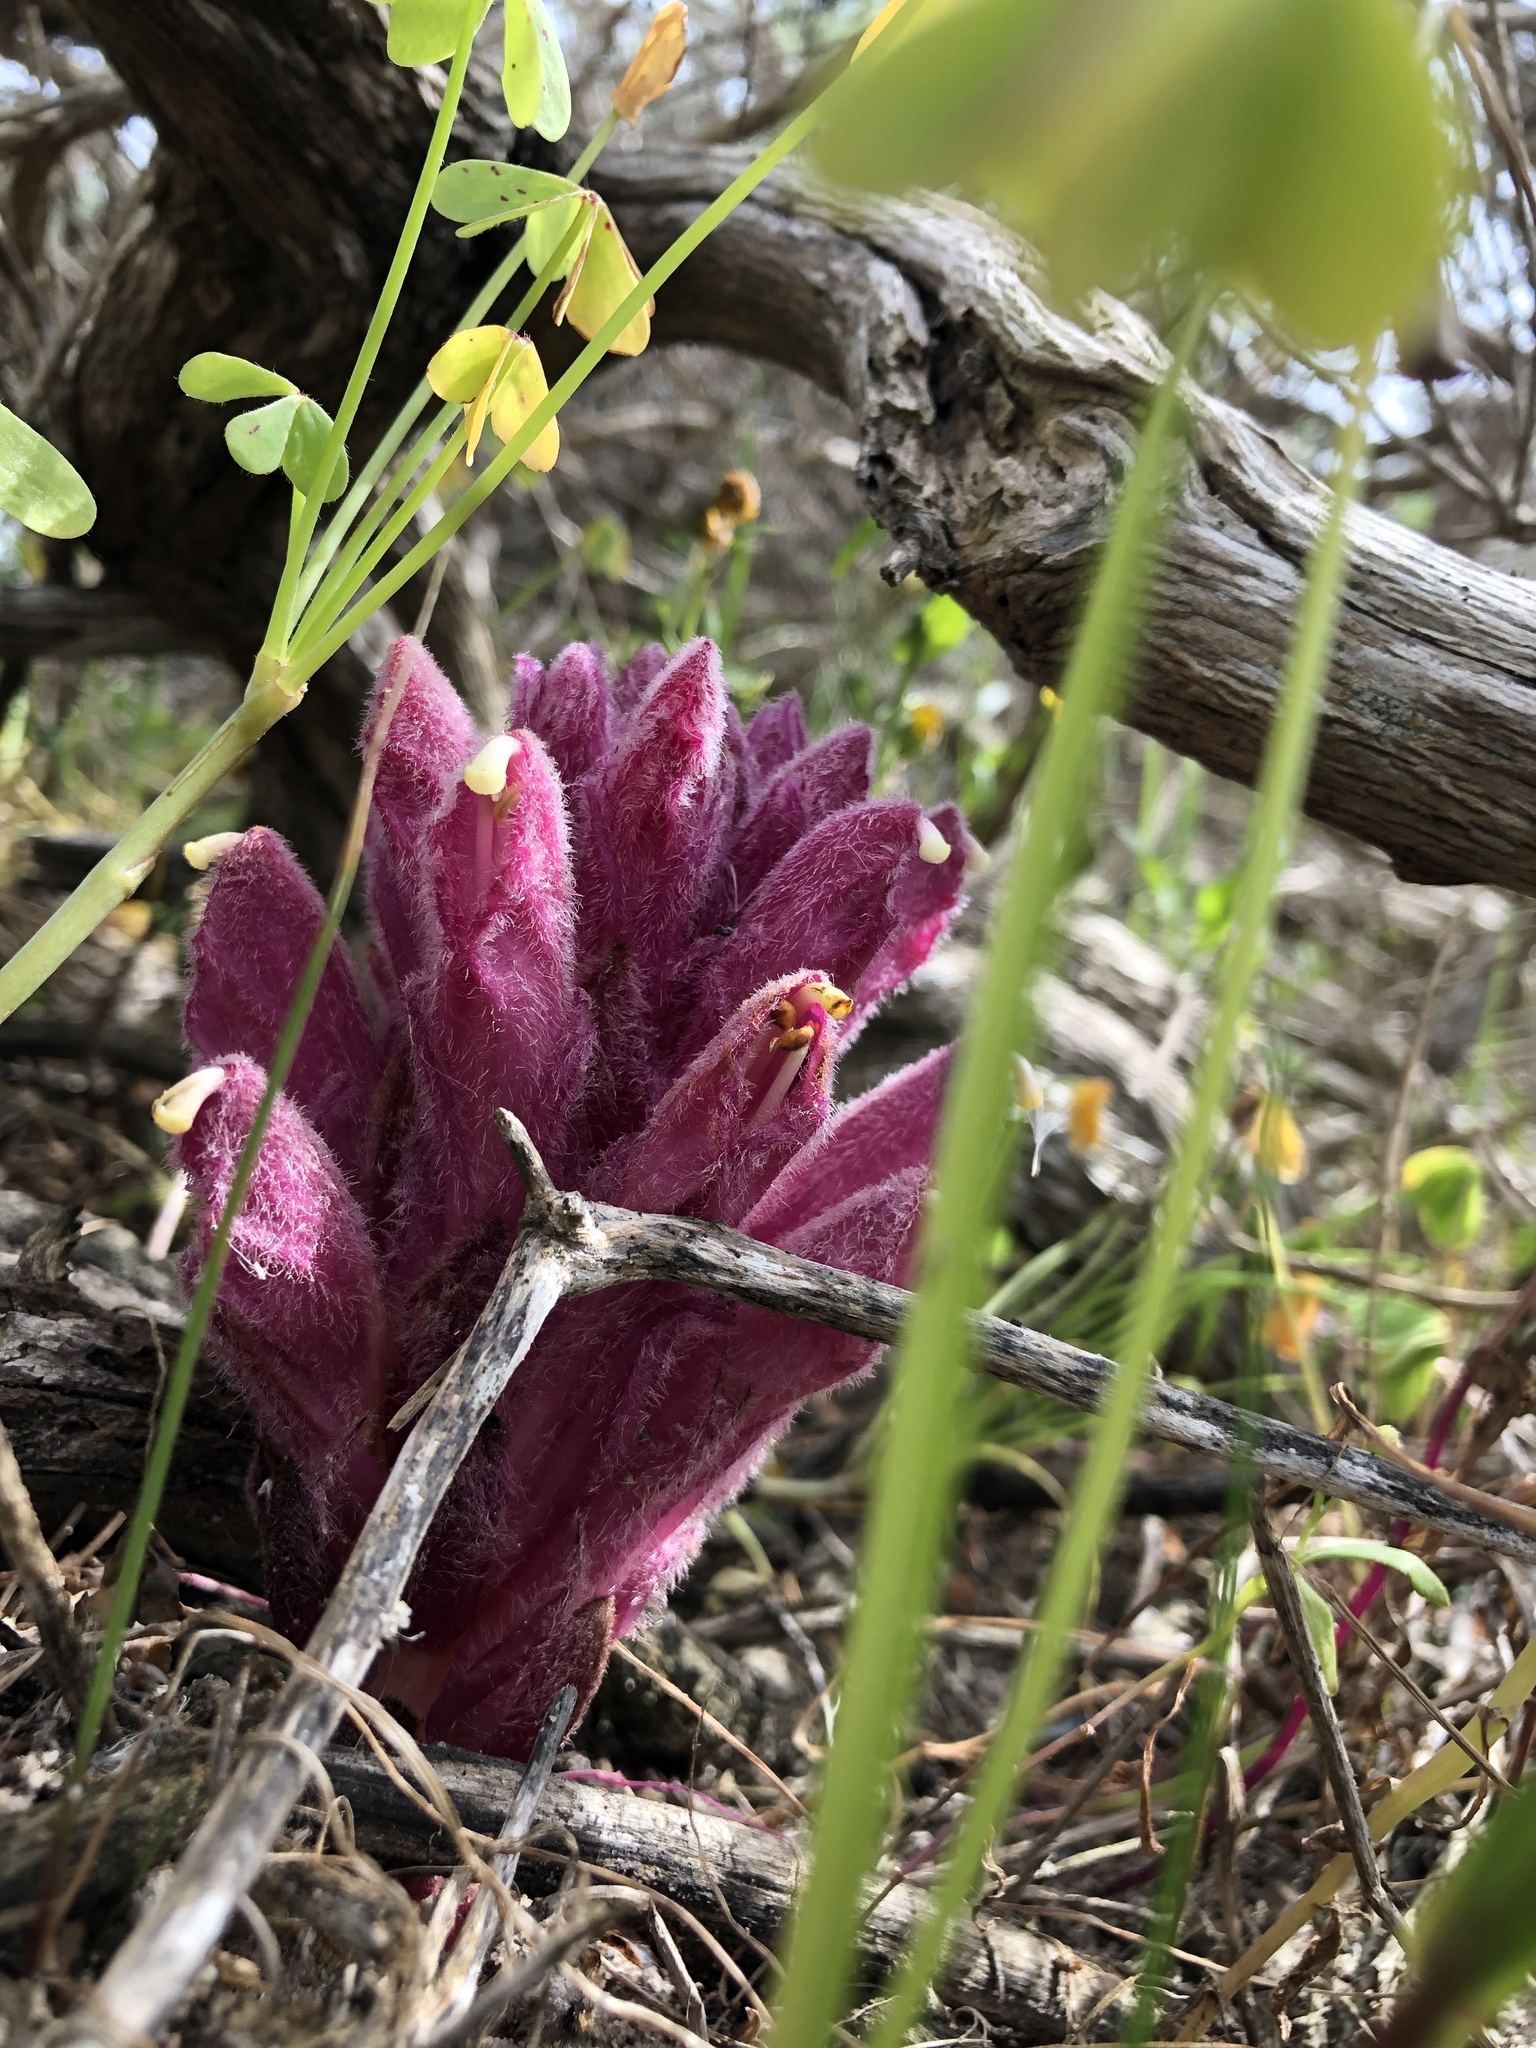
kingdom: Plantae
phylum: Tracheophyta
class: Magnoliopsida
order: Lamiales
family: Orobanchaceae
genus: Hyobanche
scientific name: Hyobanche thinophila
